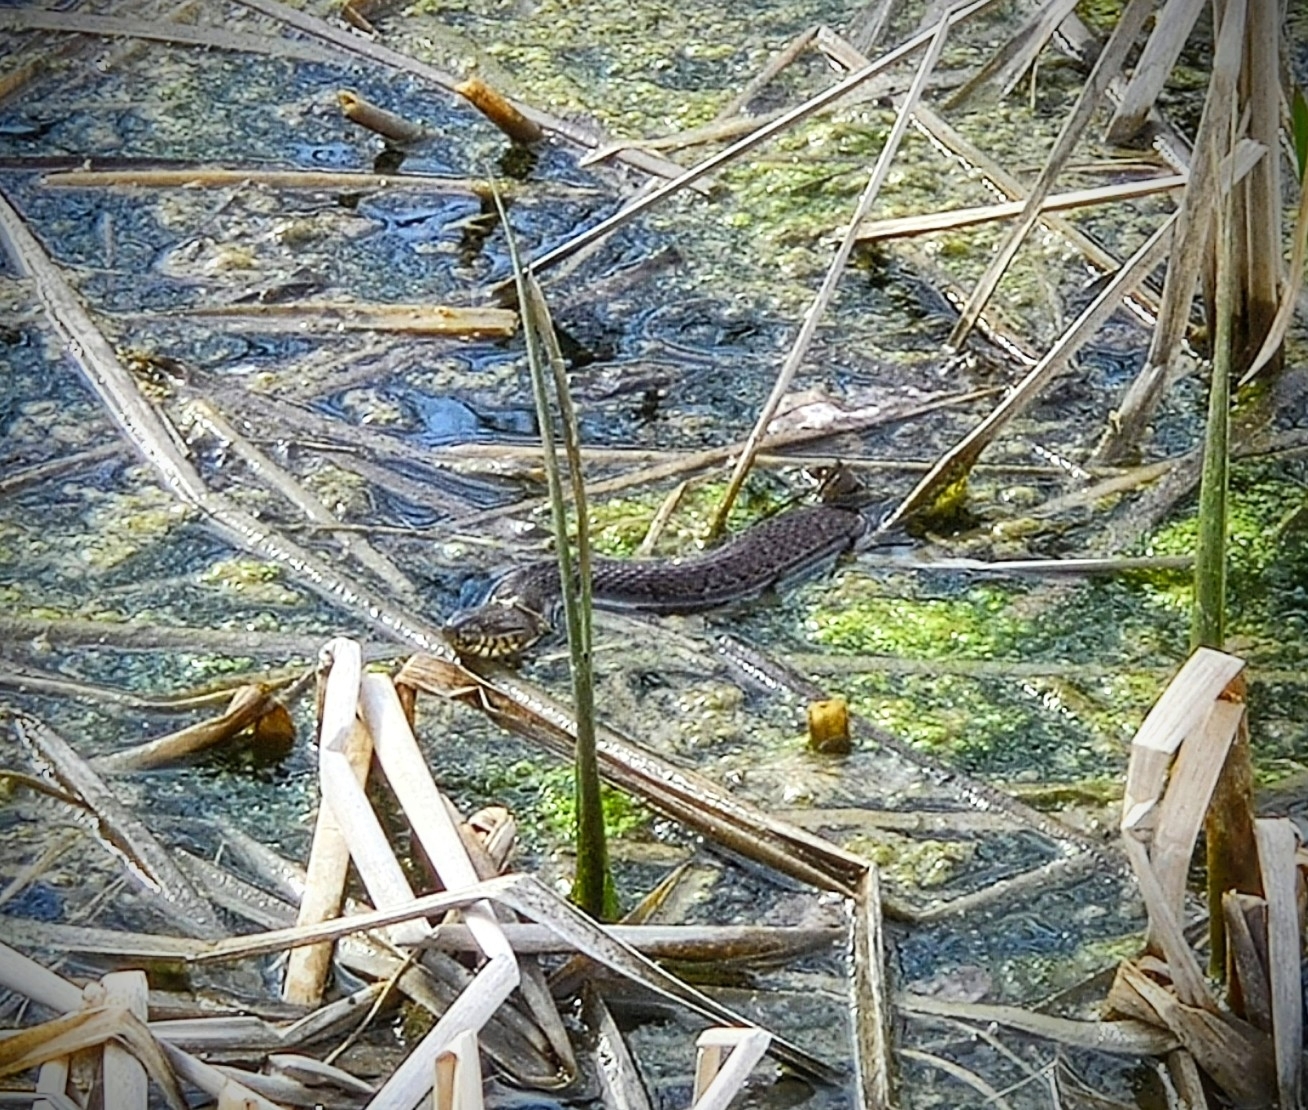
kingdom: Animalia
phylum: Chordata
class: Squamata
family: Colubridae
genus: Nerodia
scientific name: Nerodia sipedon
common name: Northern water snake
